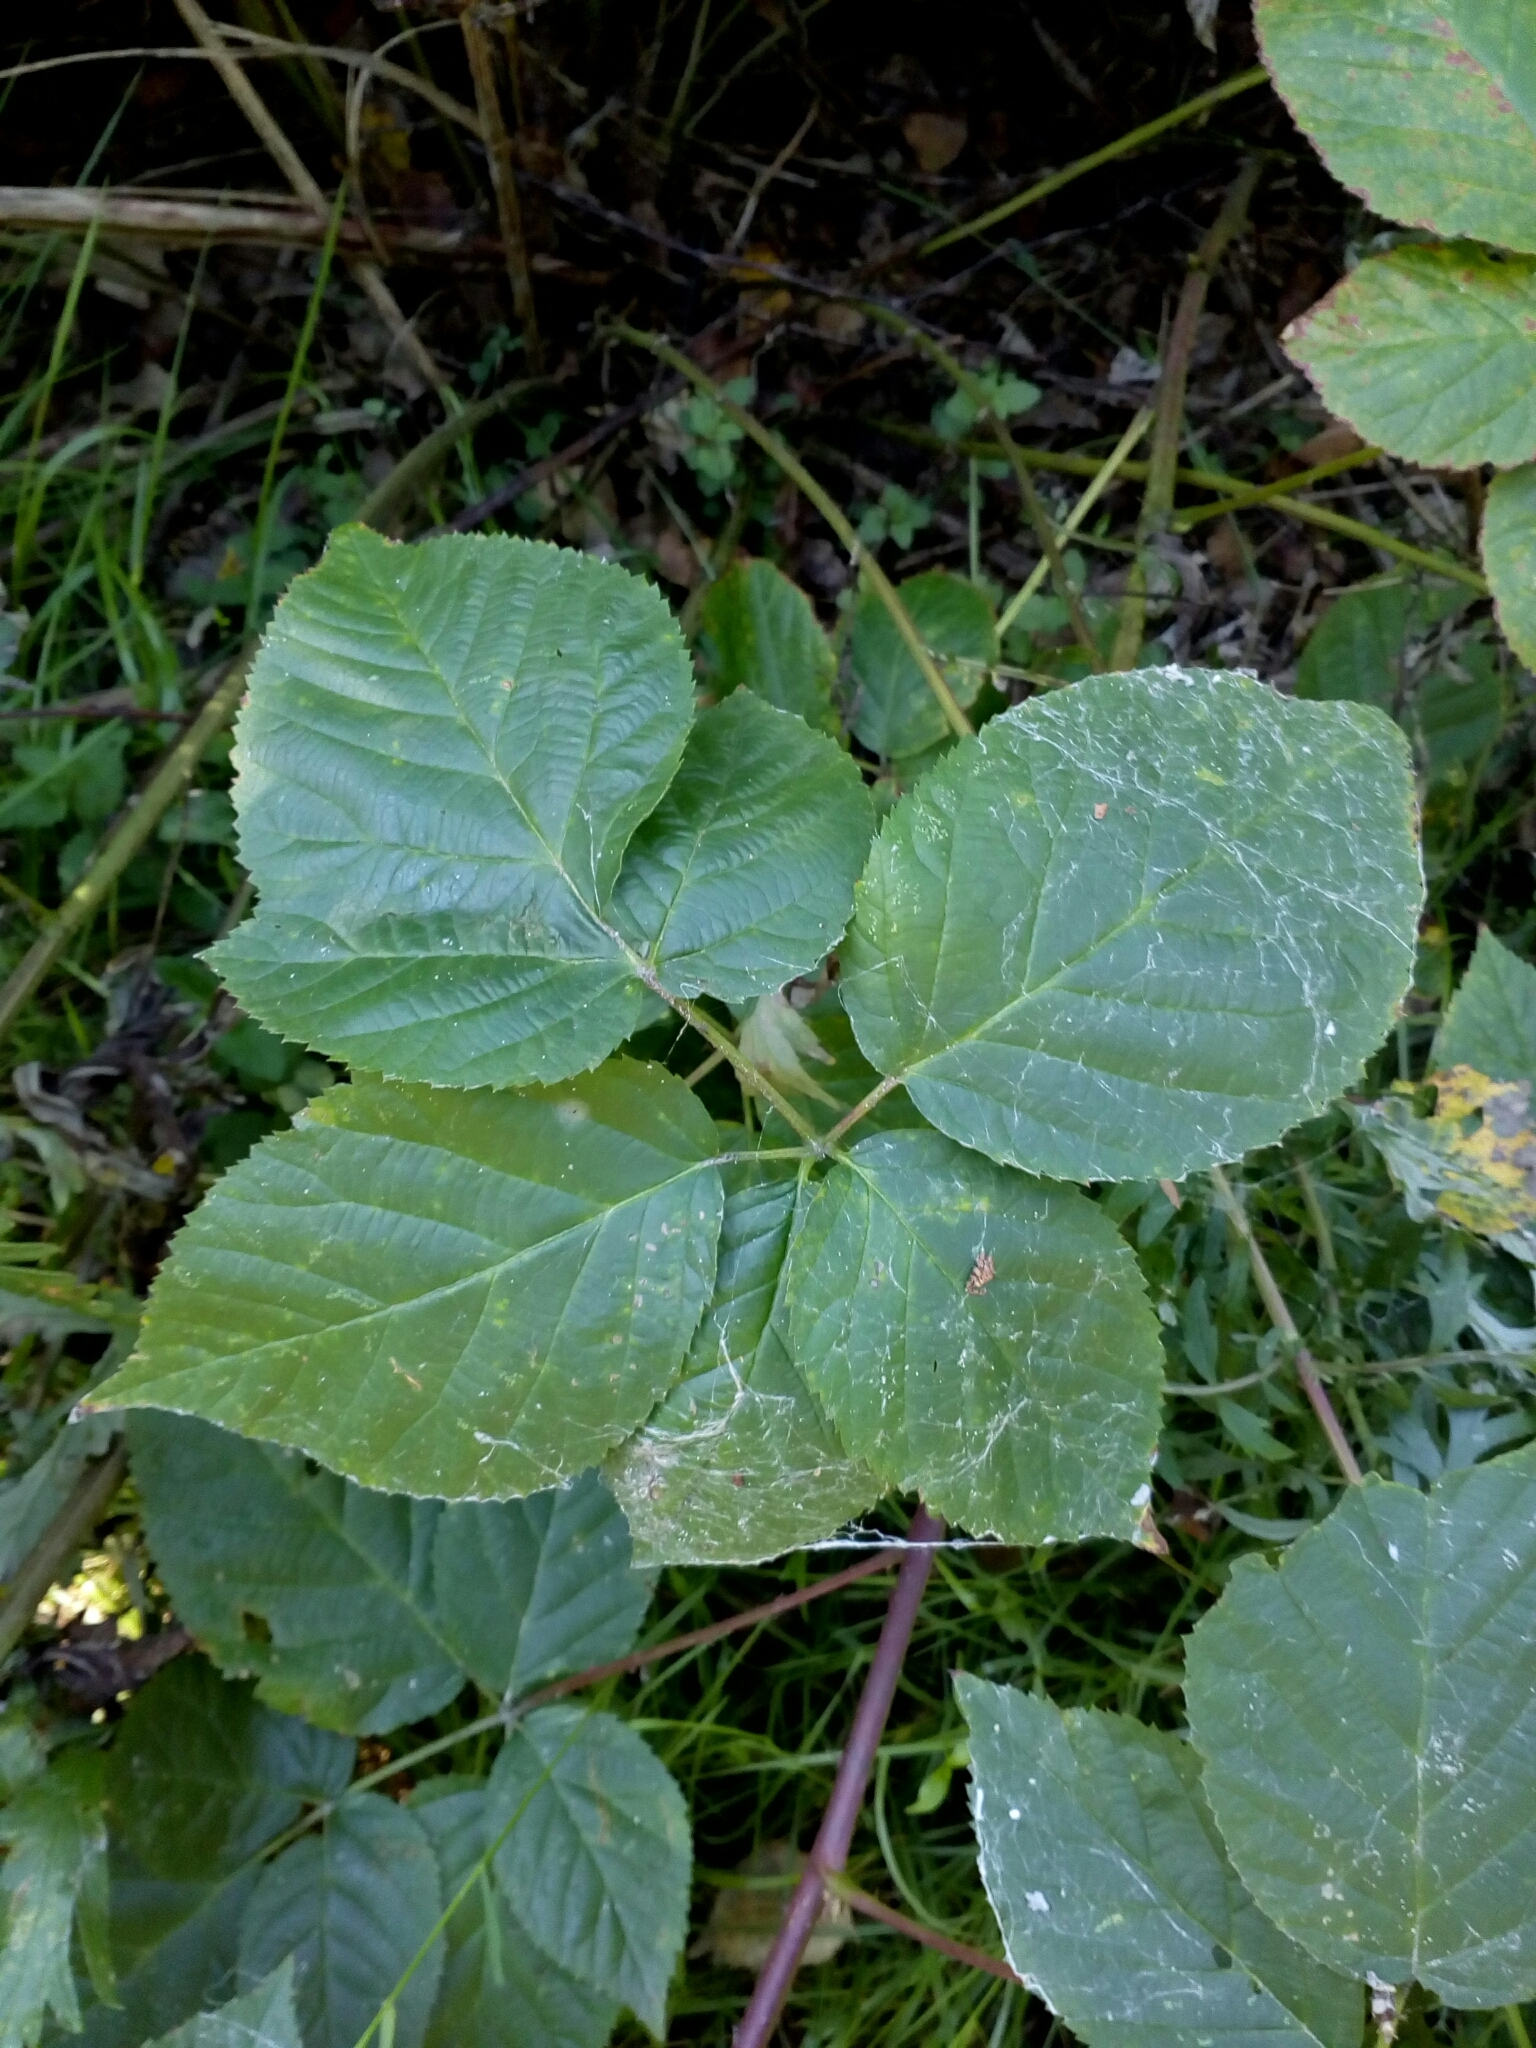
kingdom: Plantae
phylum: Tracheophyta
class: Magnoliopsida
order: Rosales
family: Rosaceae
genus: Rubus
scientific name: Rubus polonicus
